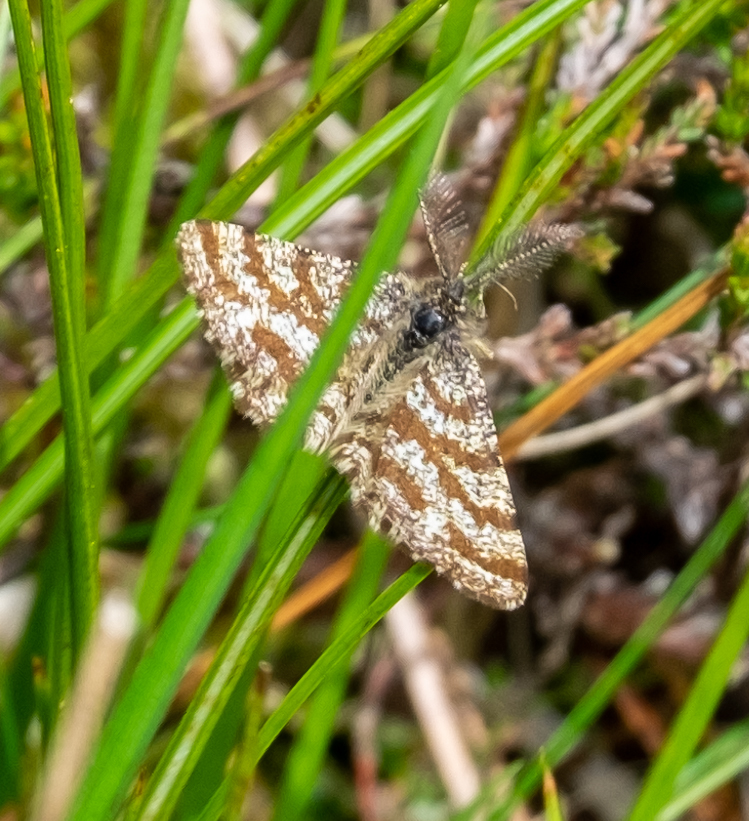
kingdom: Animalia
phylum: Arthropoda
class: Insecta
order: Lepidoptera
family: Geometridae
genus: Ematurga
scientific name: Ematurga atomaria
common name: Common heath
